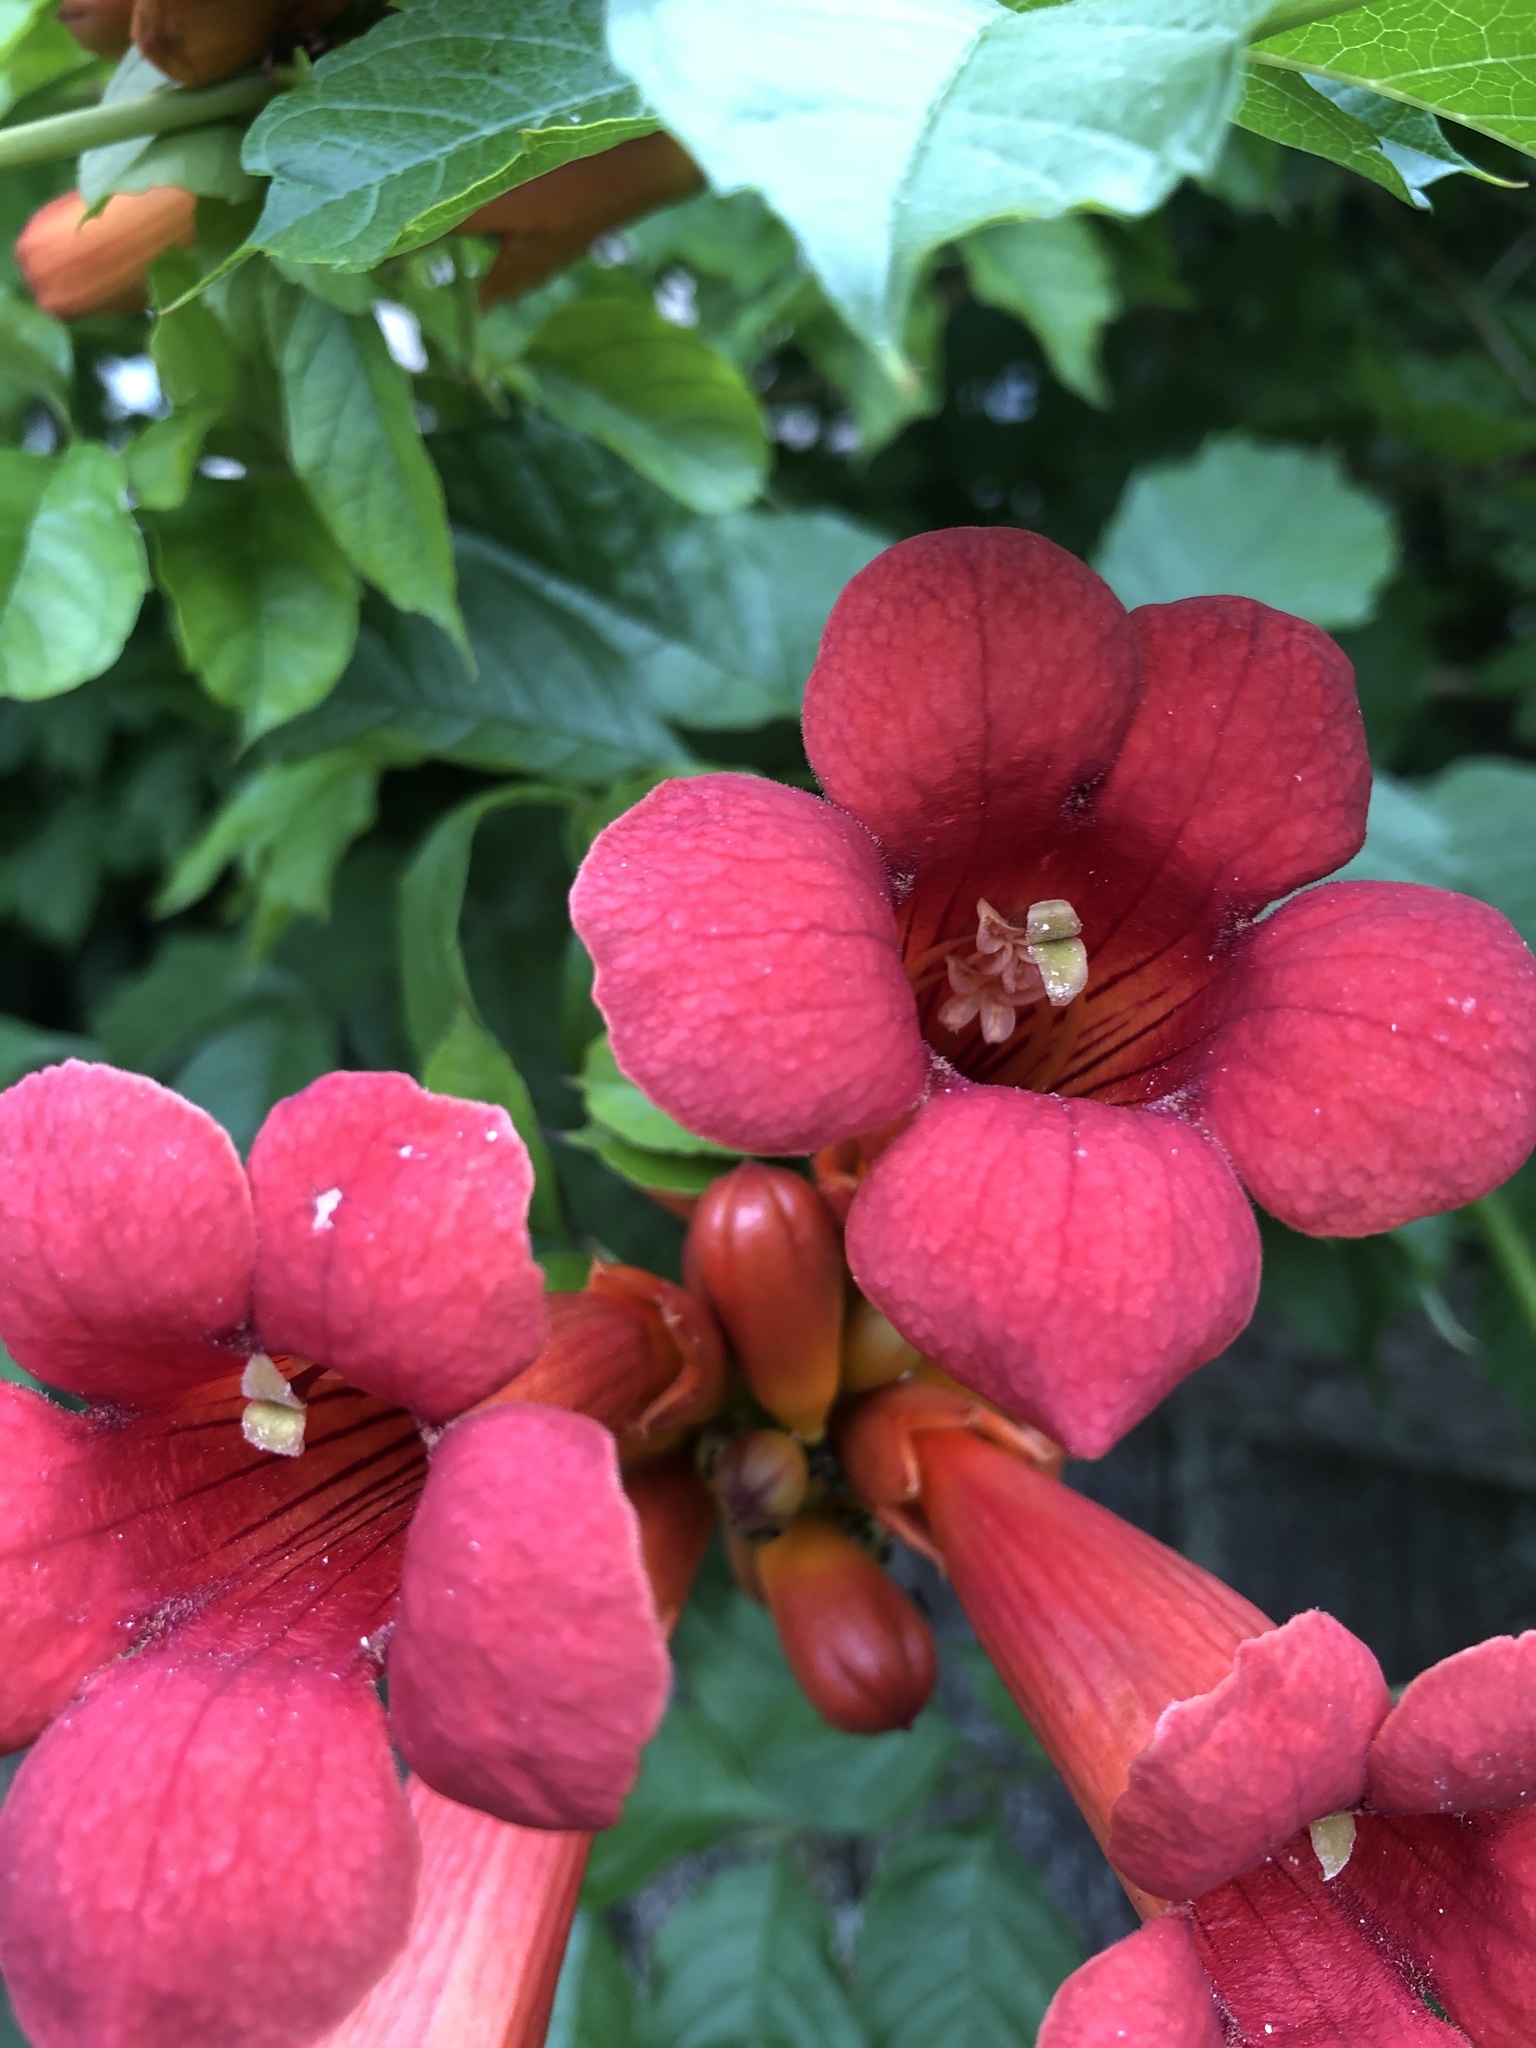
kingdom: Plantae
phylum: Tracheophyta
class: Magnoliopsida
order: Lamiales
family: Bignoniaceae
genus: Campsis
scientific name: Campsis radicans
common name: Trumpet-creeper
